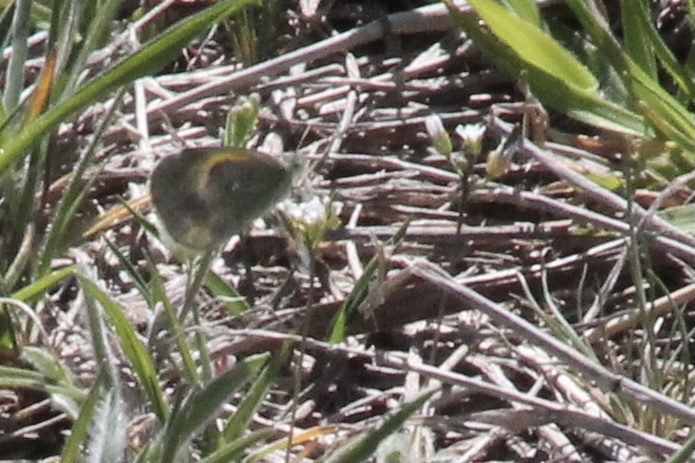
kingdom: Animalia
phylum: Arthropoda
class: Insecta
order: Lepidoptera
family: Pieridae
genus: Nathalis
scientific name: Nathalis iole
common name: Dainty sulphur
